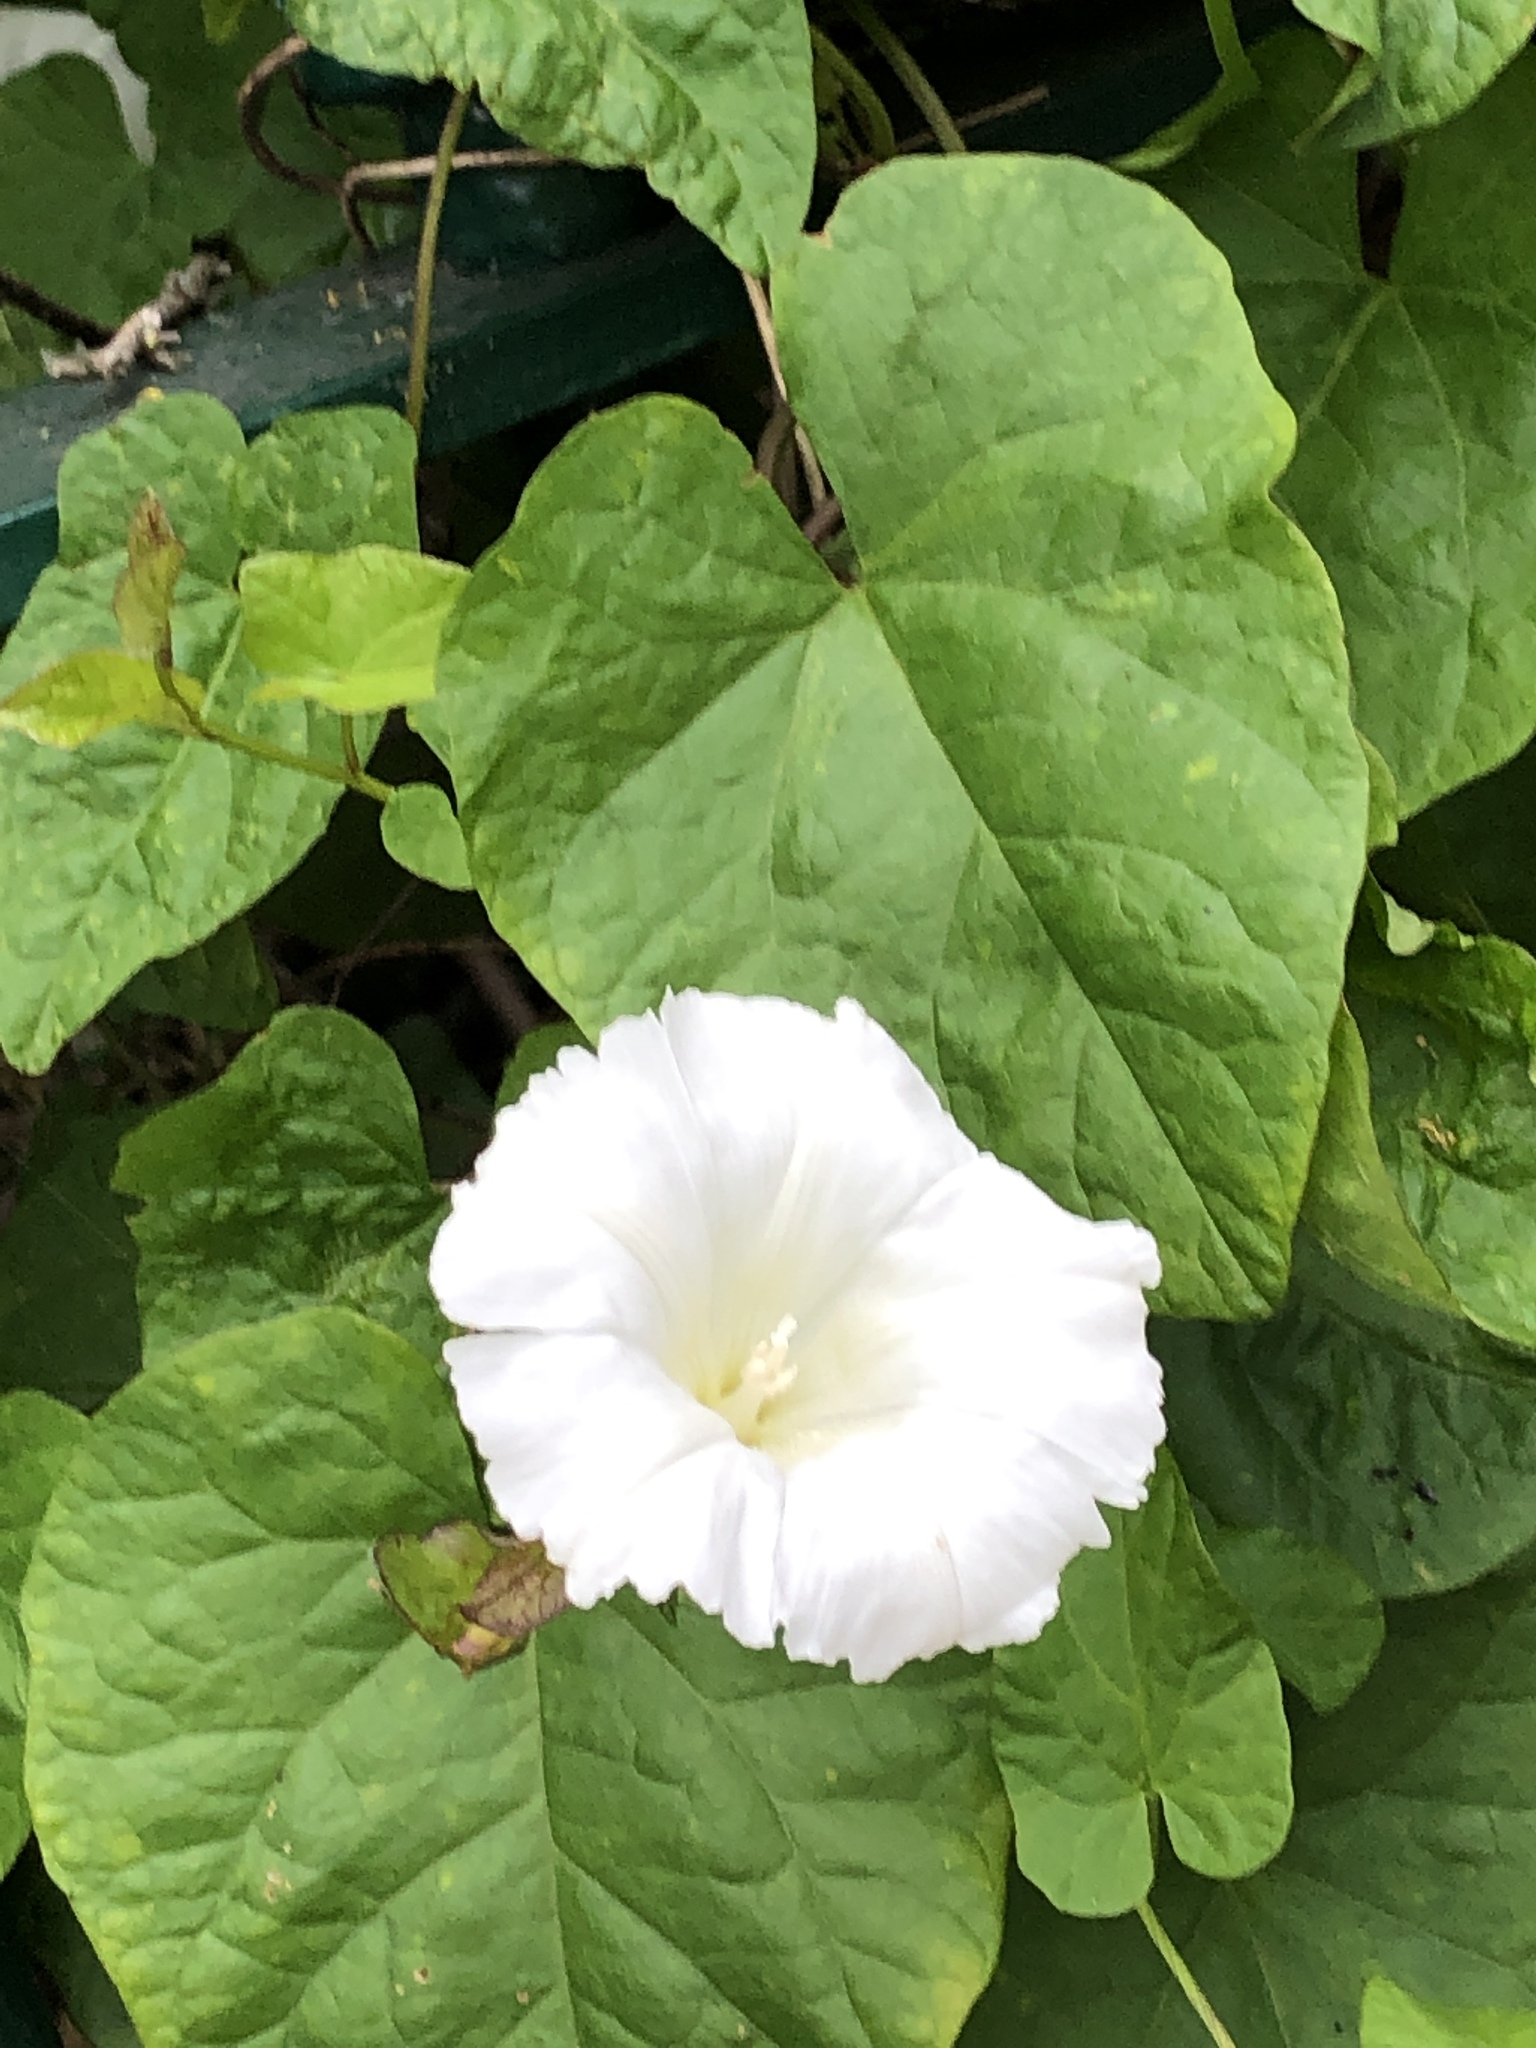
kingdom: Plantae
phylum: Tracheophyta
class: Magnoliopsida
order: Solanales
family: Convolvulaceae
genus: Calystegia
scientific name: Calystegia
